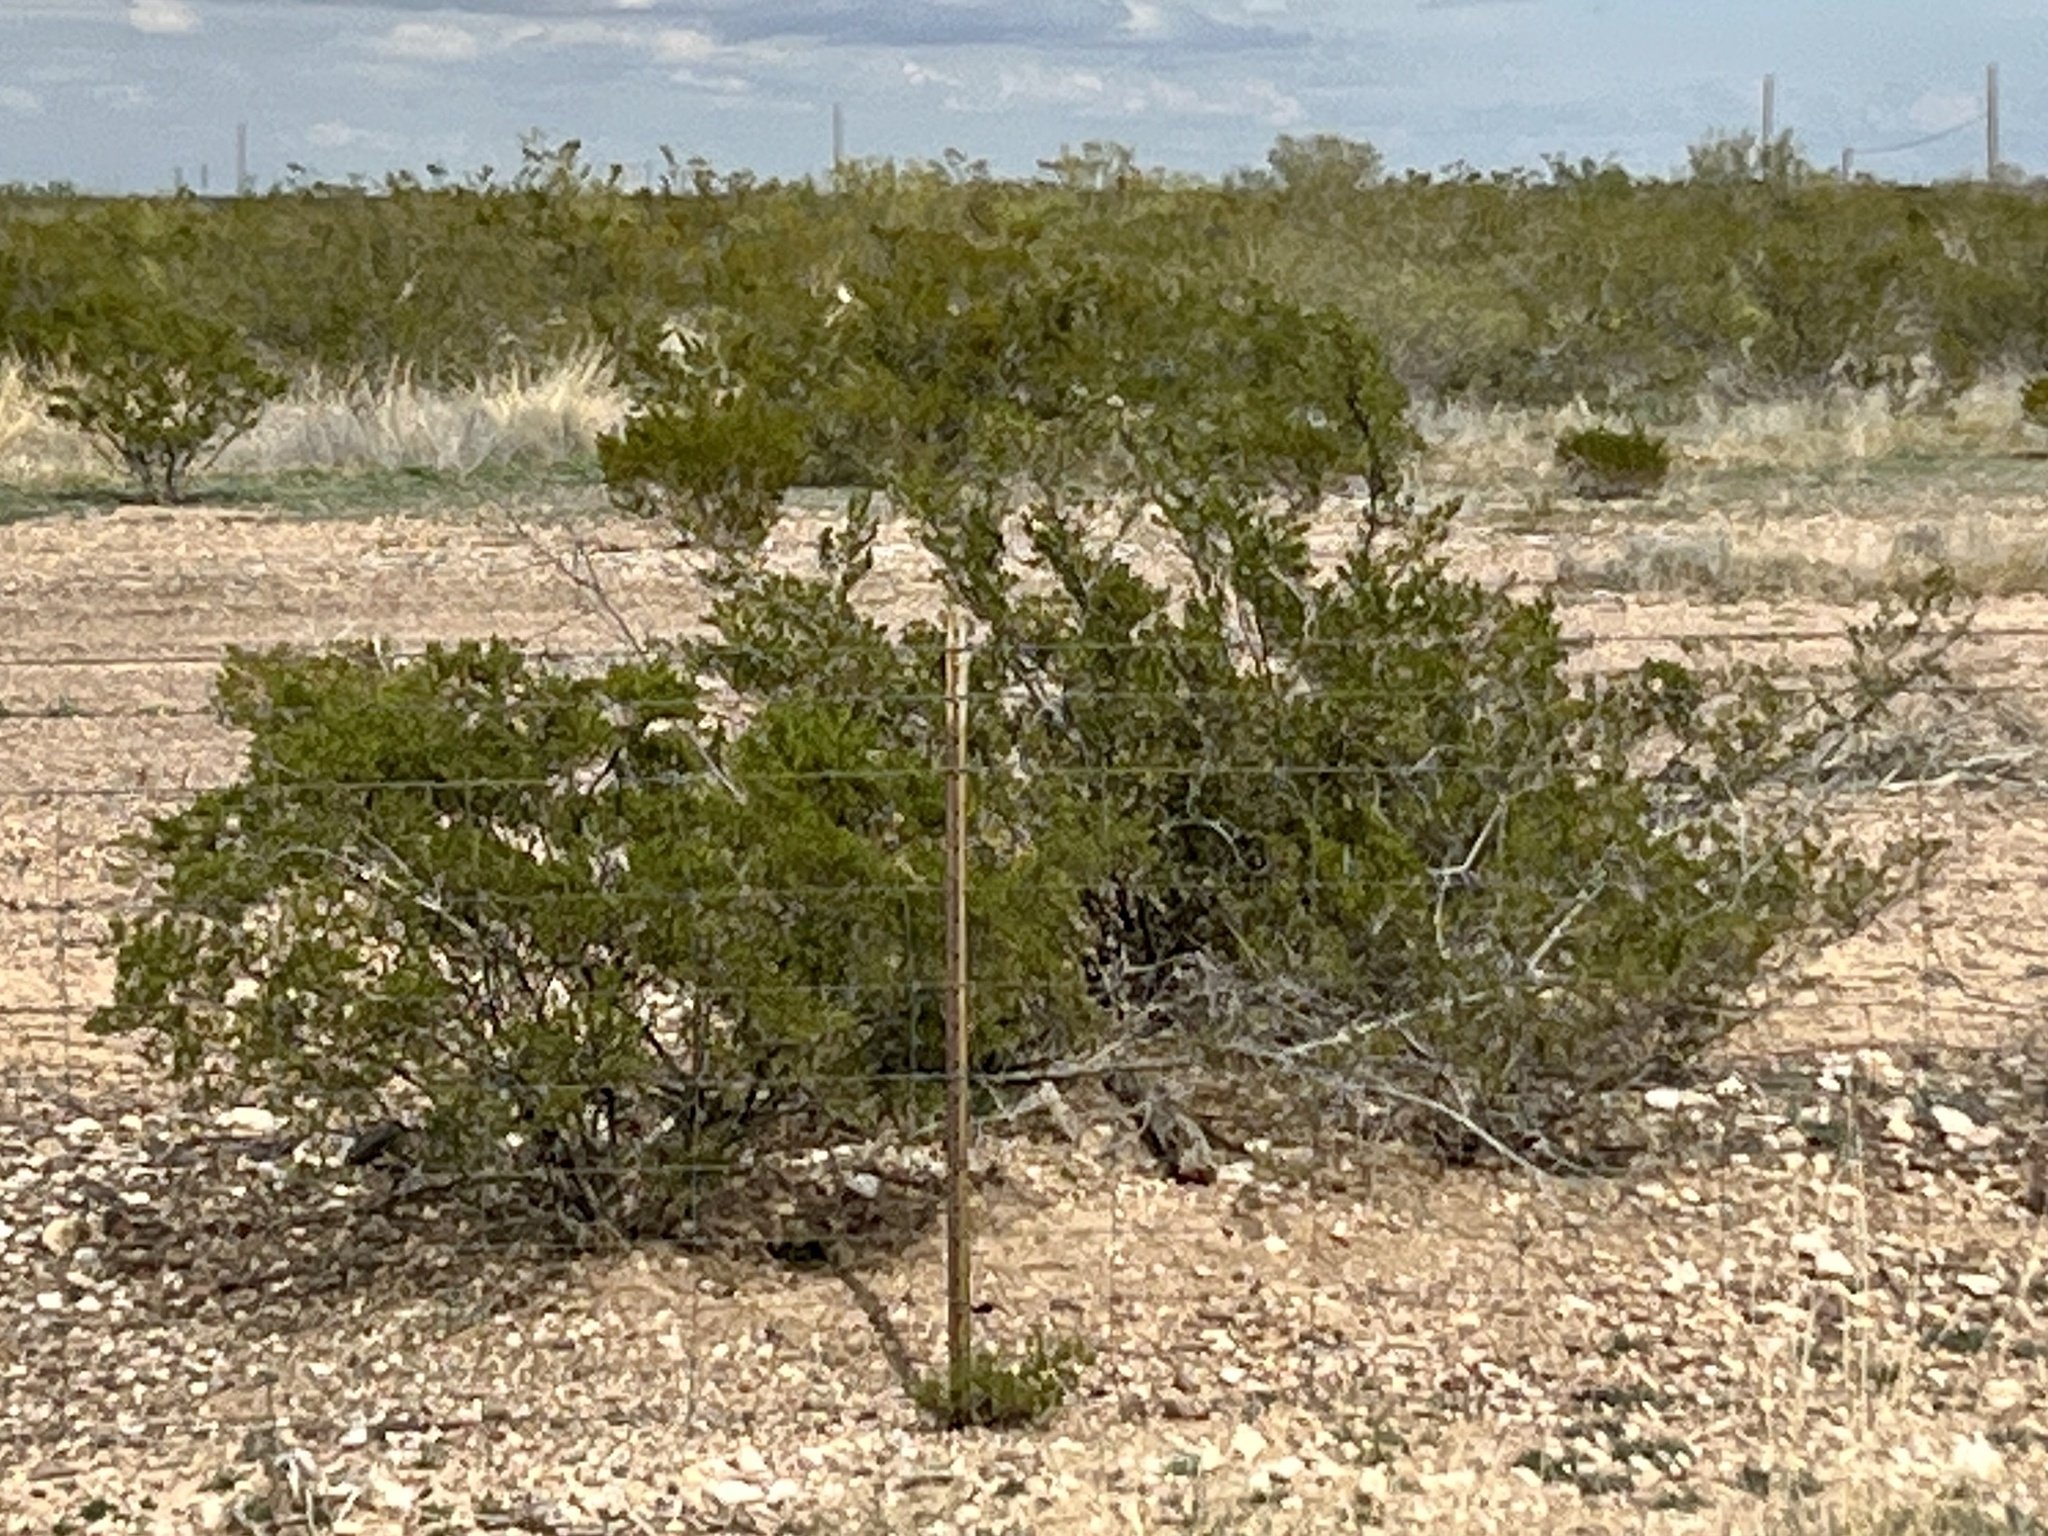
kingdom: Plantae
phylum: Tracheophyta
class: Magnoliopsida
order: Zygophyllales
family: Zygophyllaceae
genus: Larrea
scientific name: Larrea tridentata
